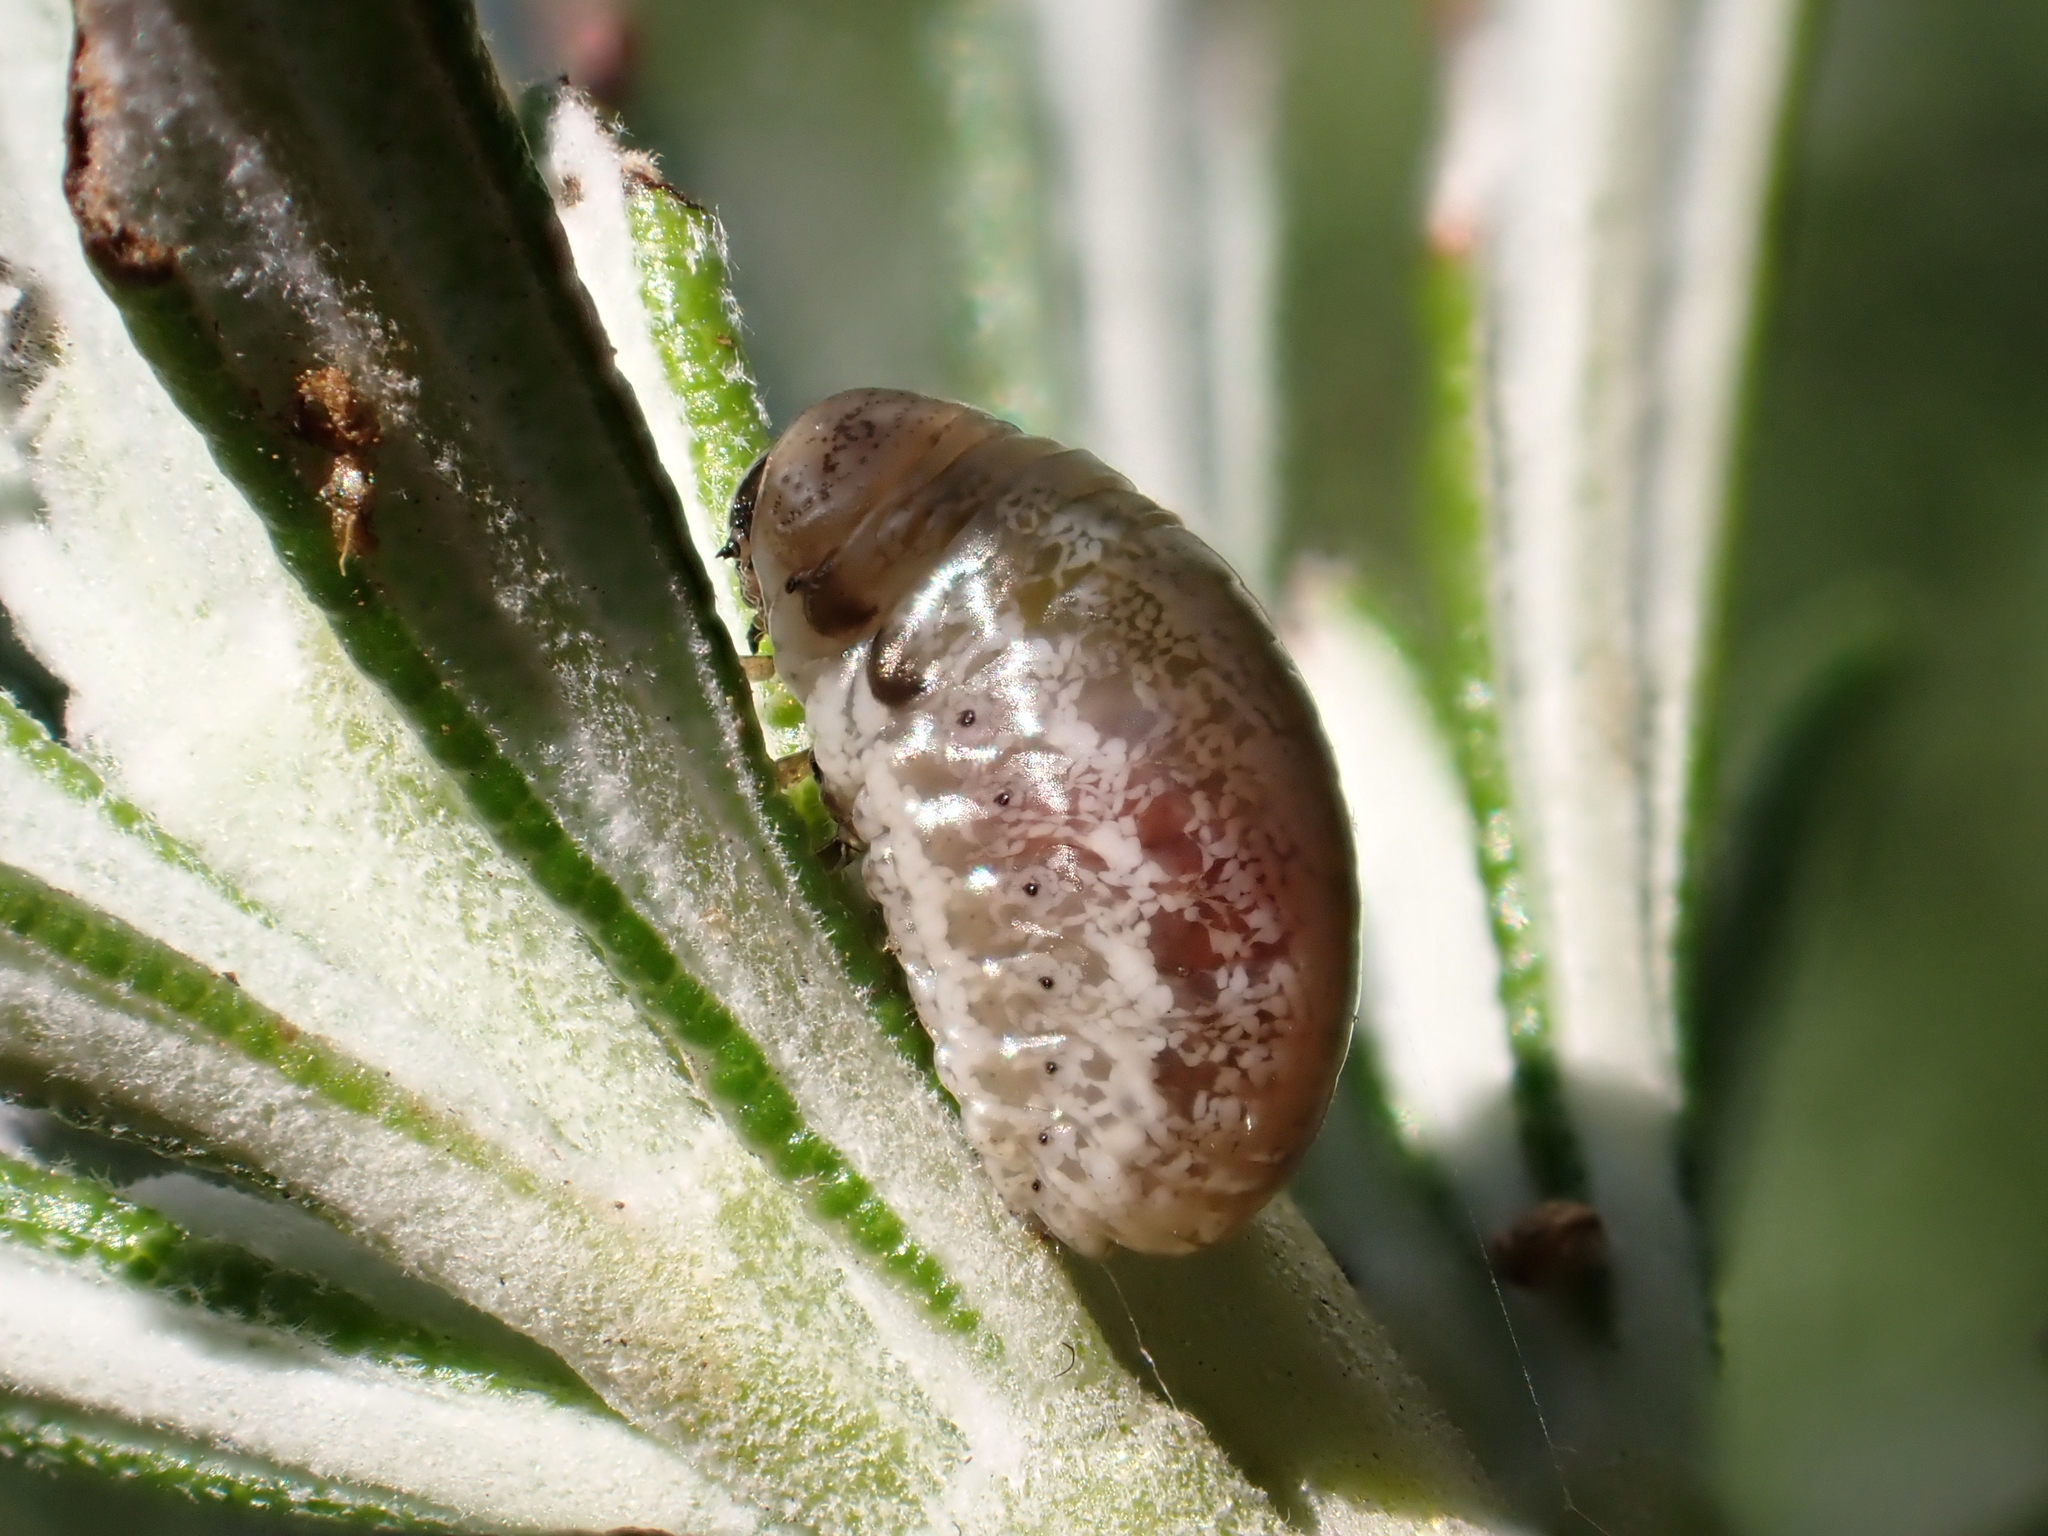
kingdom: Animalia
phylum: Arthropoda
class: Insecta
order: Coleoptera
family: Chrysomelidae
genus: Chrysolina
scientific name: Chrysolina americana
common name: Rosemary beetle
